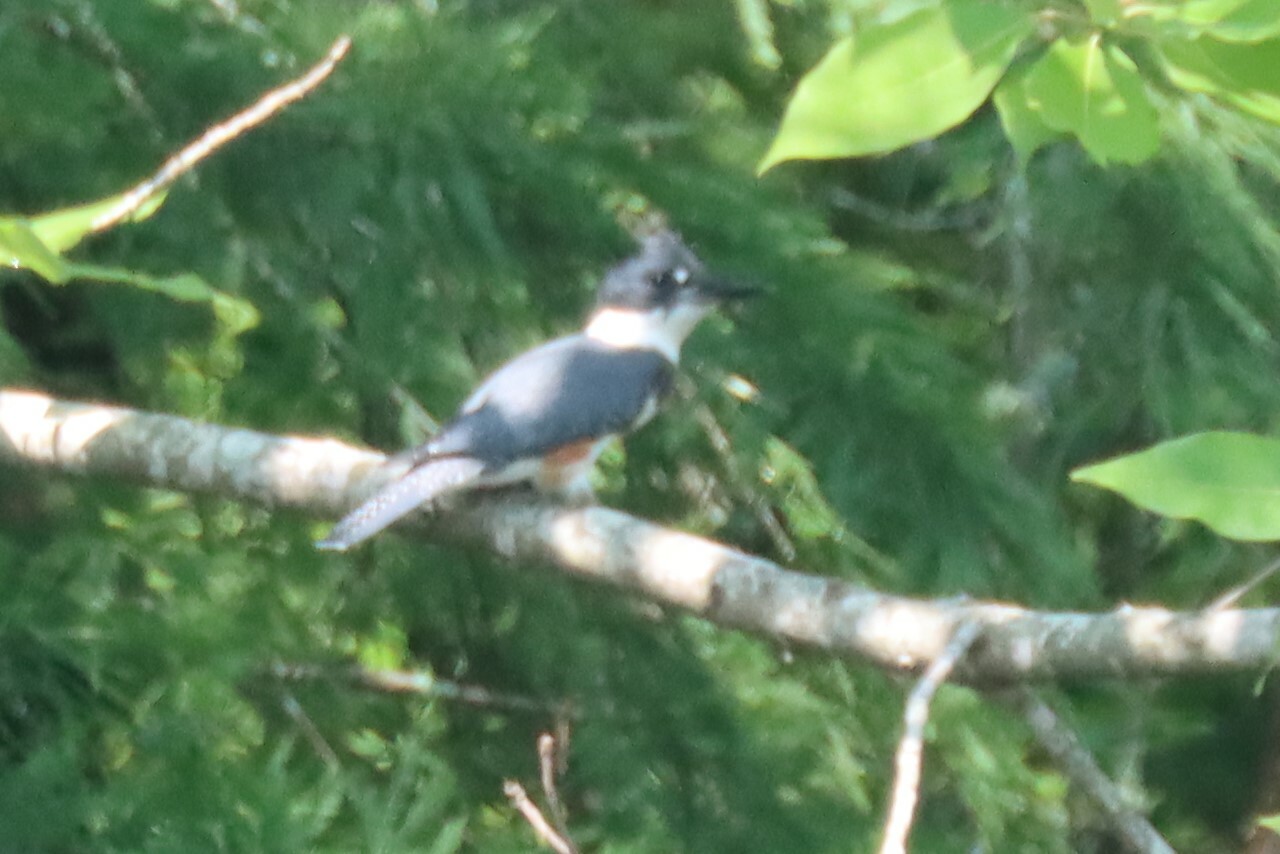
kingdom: Animalia
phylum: Chordata
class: Aves
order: Coraciiformes
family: Alcedinidae
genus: Megaceryle
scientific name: Megaceryle alcyon
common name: Belted kingfisher
